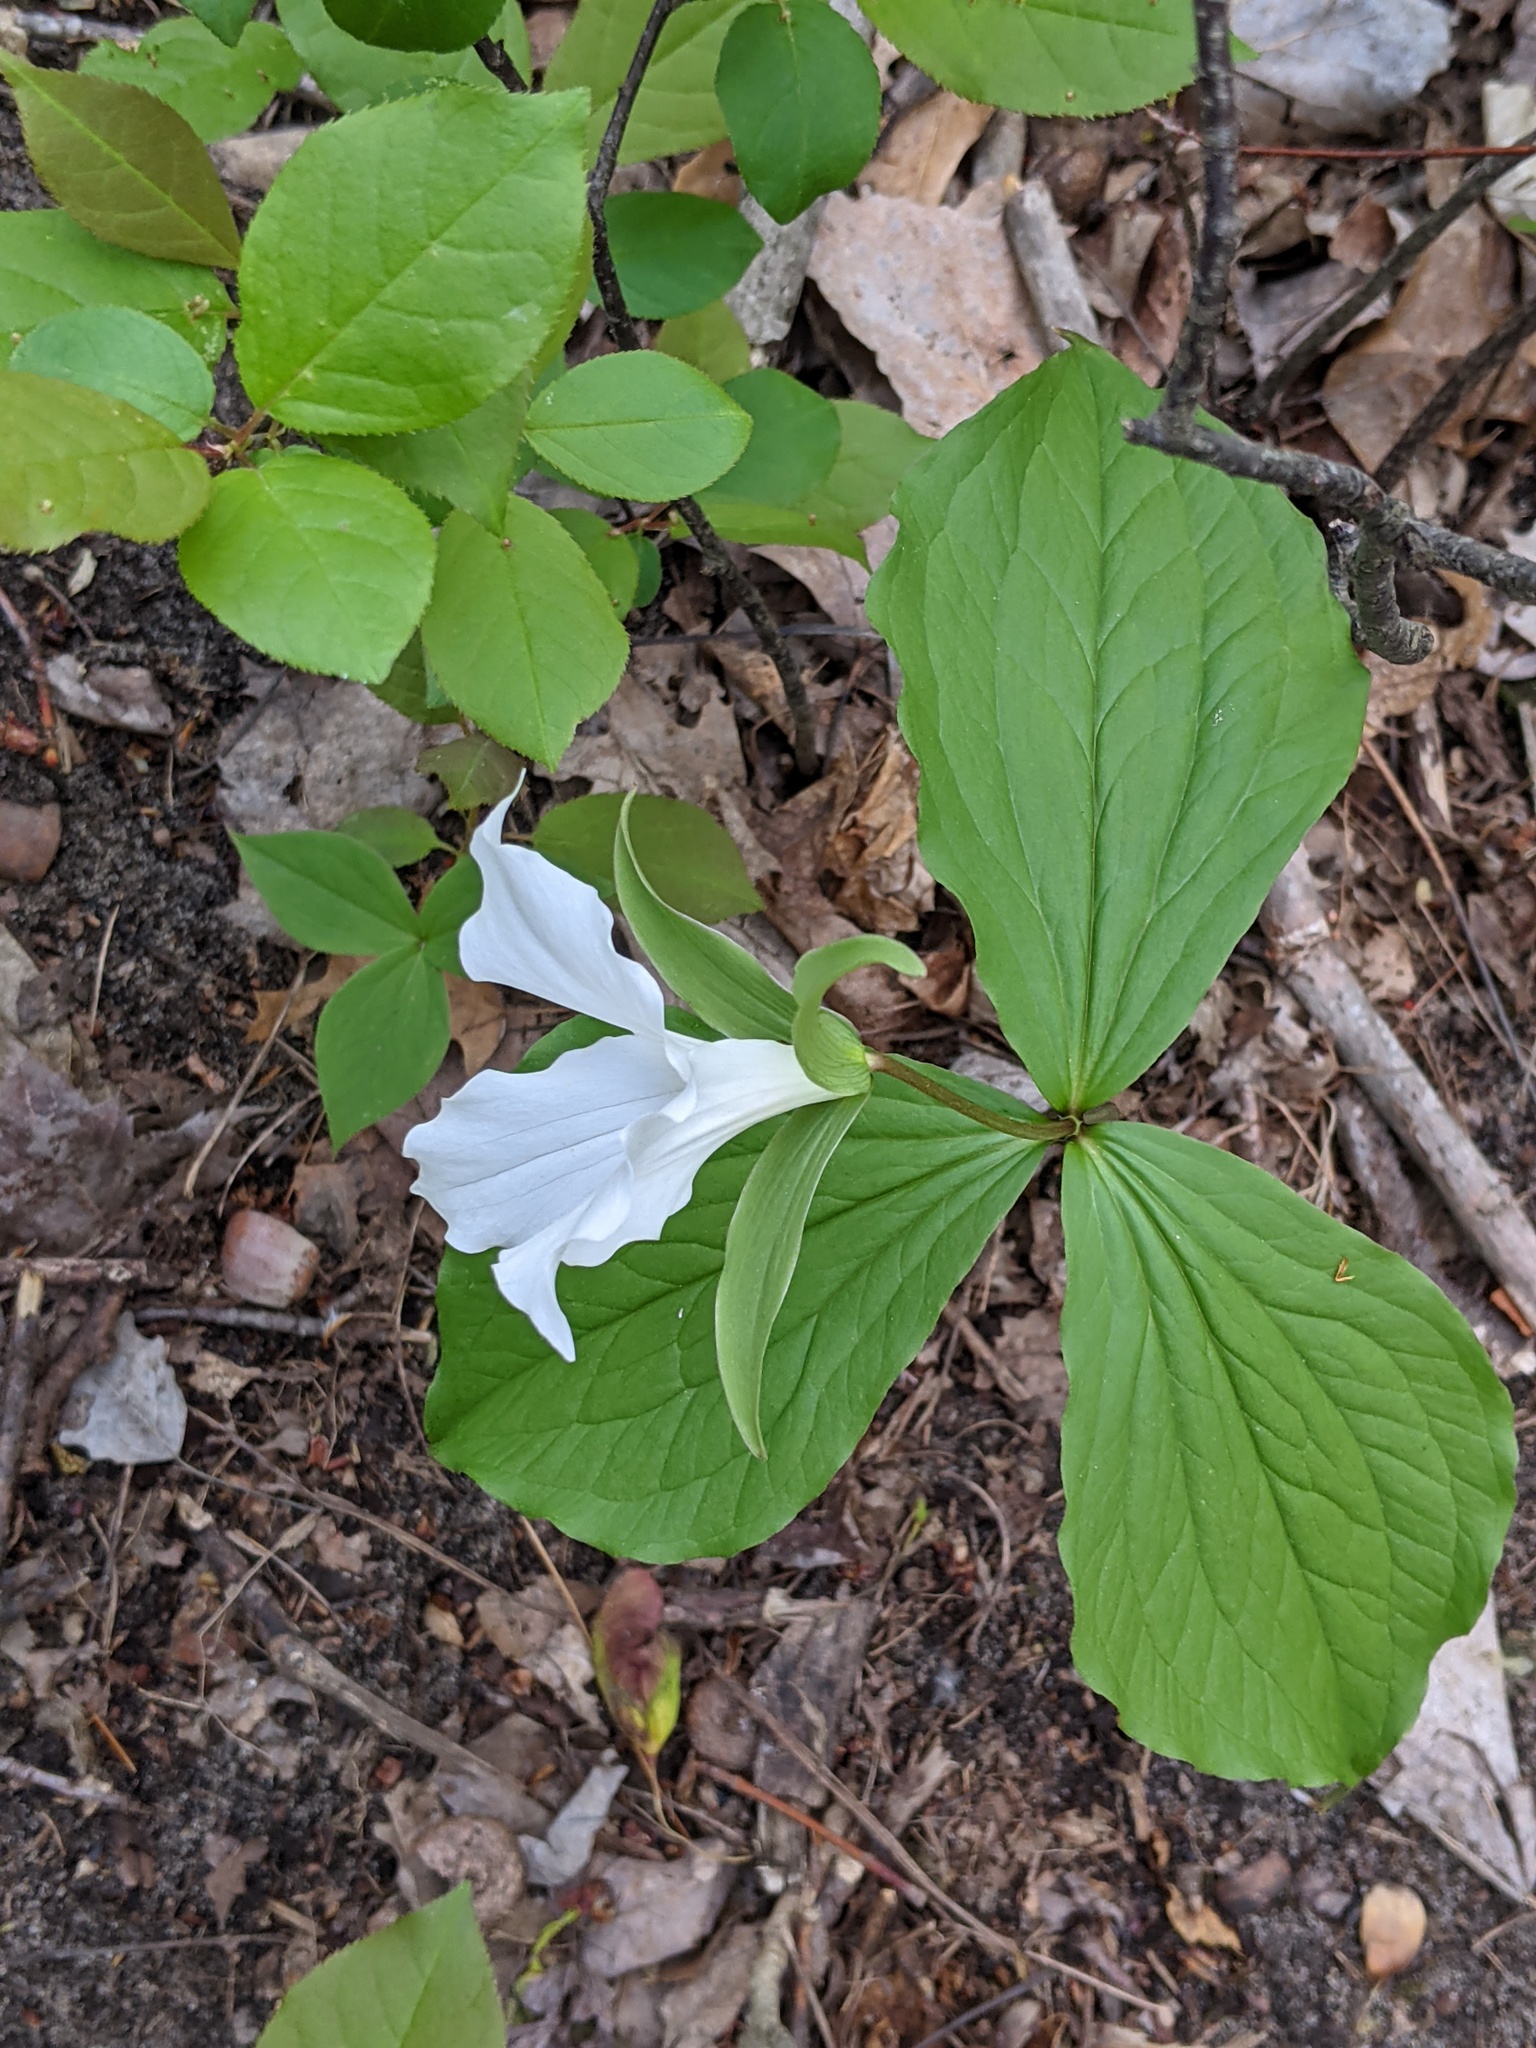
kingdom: Plantae
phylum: Tracheophyta
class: Liliopsida
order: Liliales
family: Melanthiaceae
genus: Trillium
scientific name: Trillium grandiflorum
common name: Great white trillium
